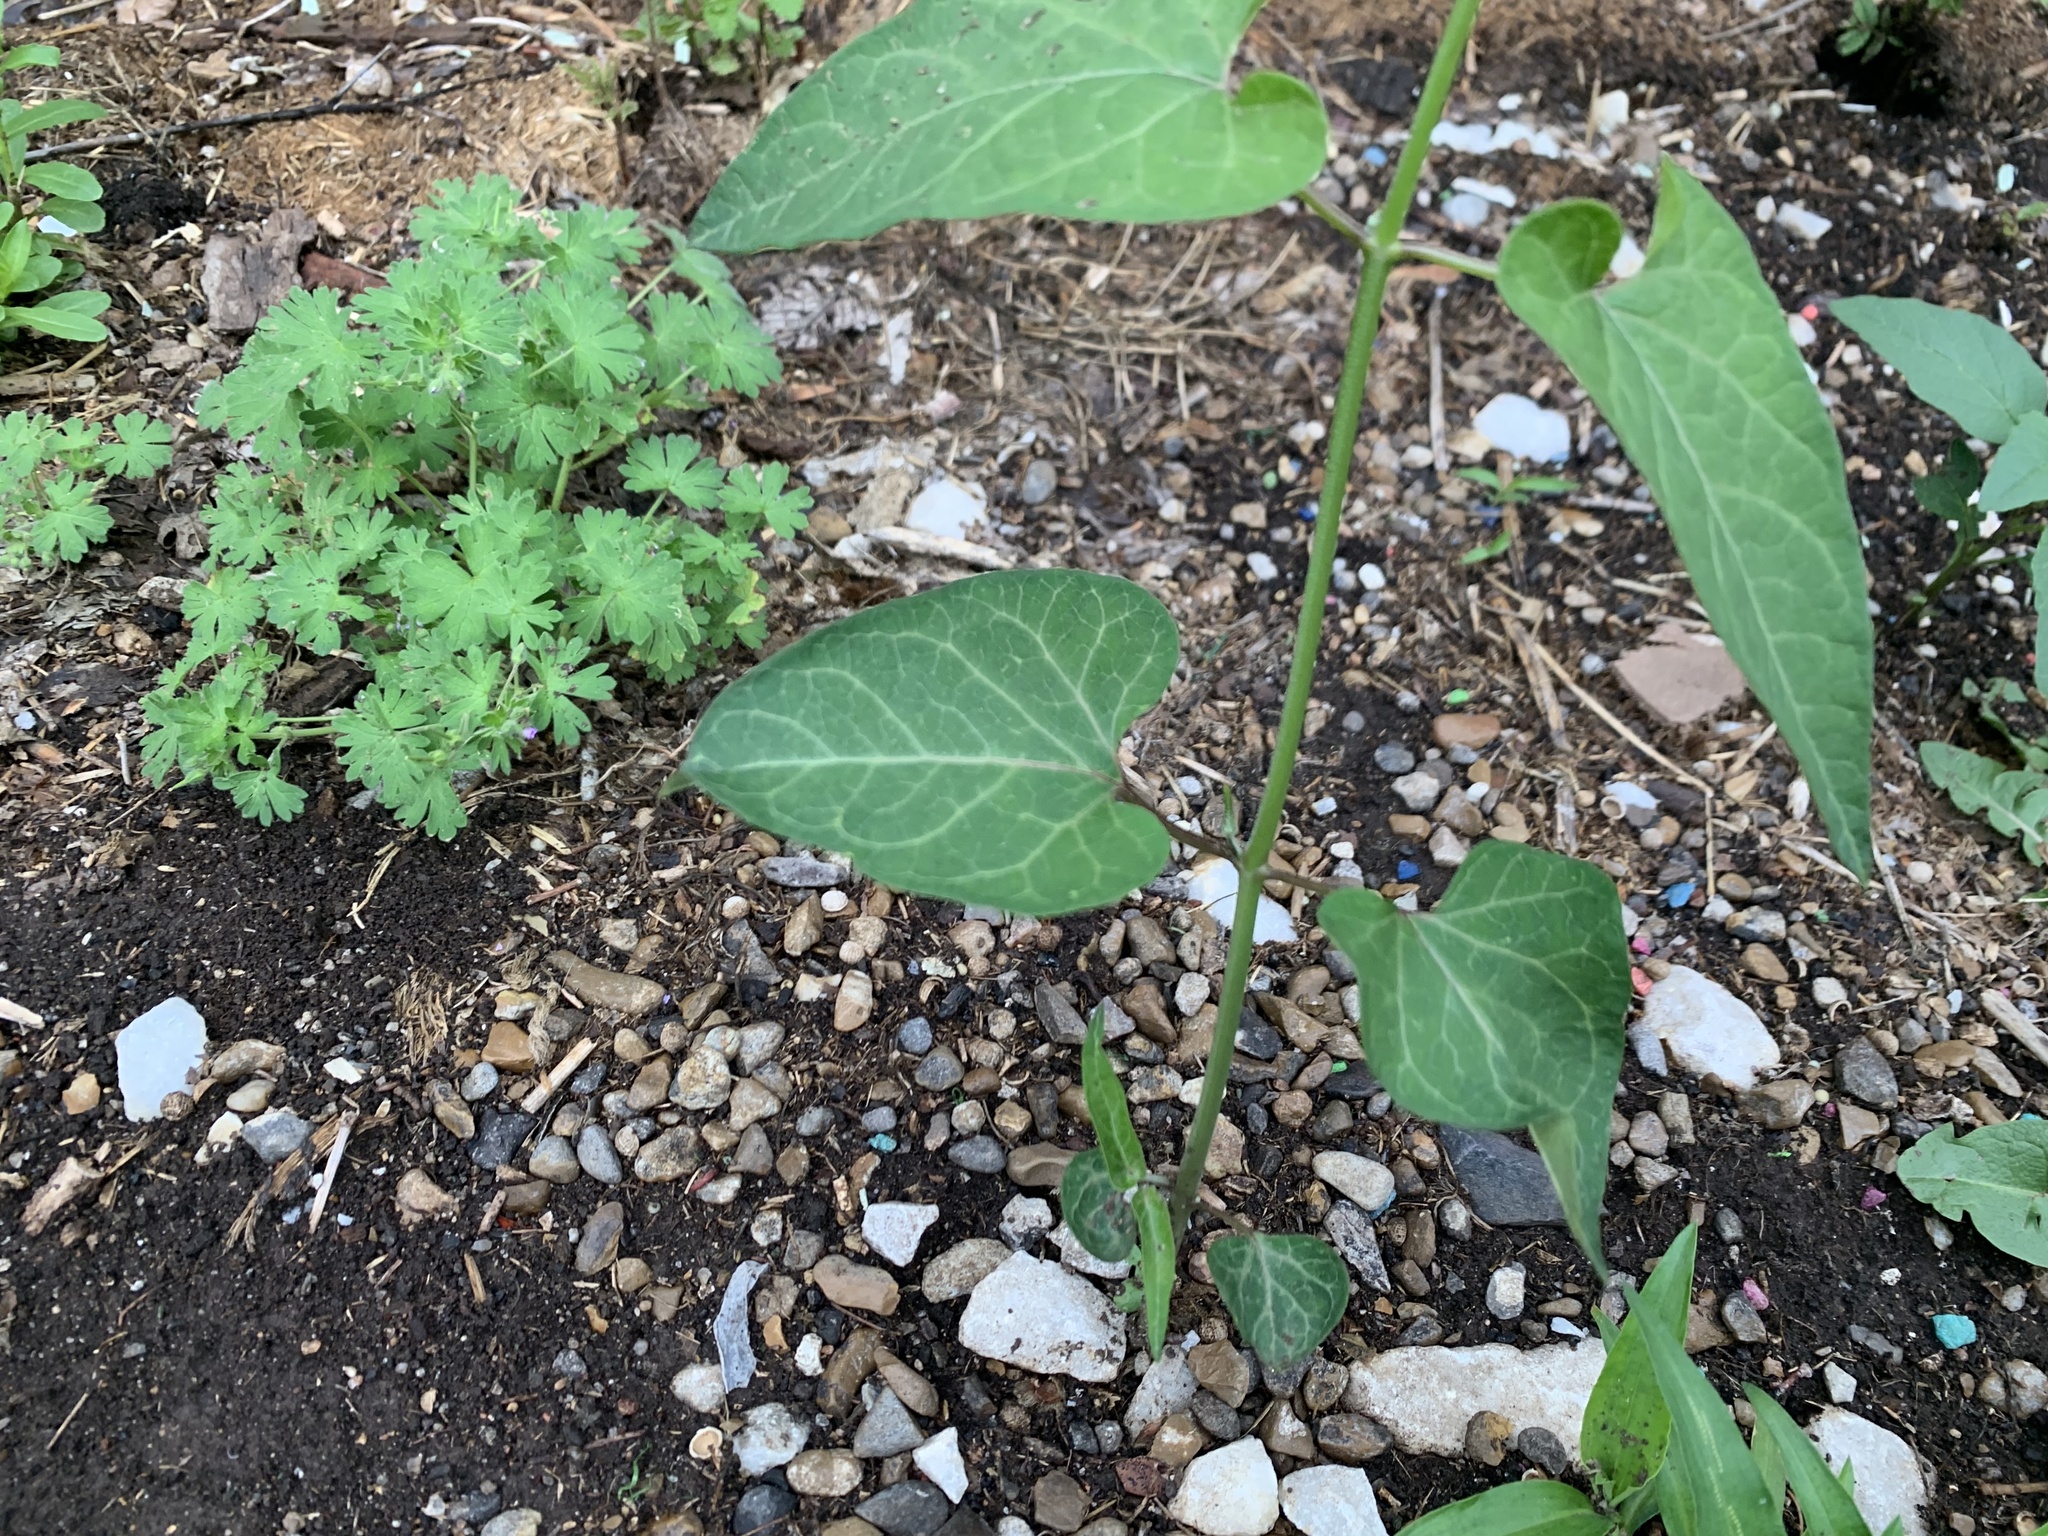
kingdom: Plantae
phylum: Tracheophyta
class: Magnoliopsida
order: Gentianales
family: Apocynaceae
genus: Cynanchum
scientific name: Cynanchum laeve
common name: Sandvine
